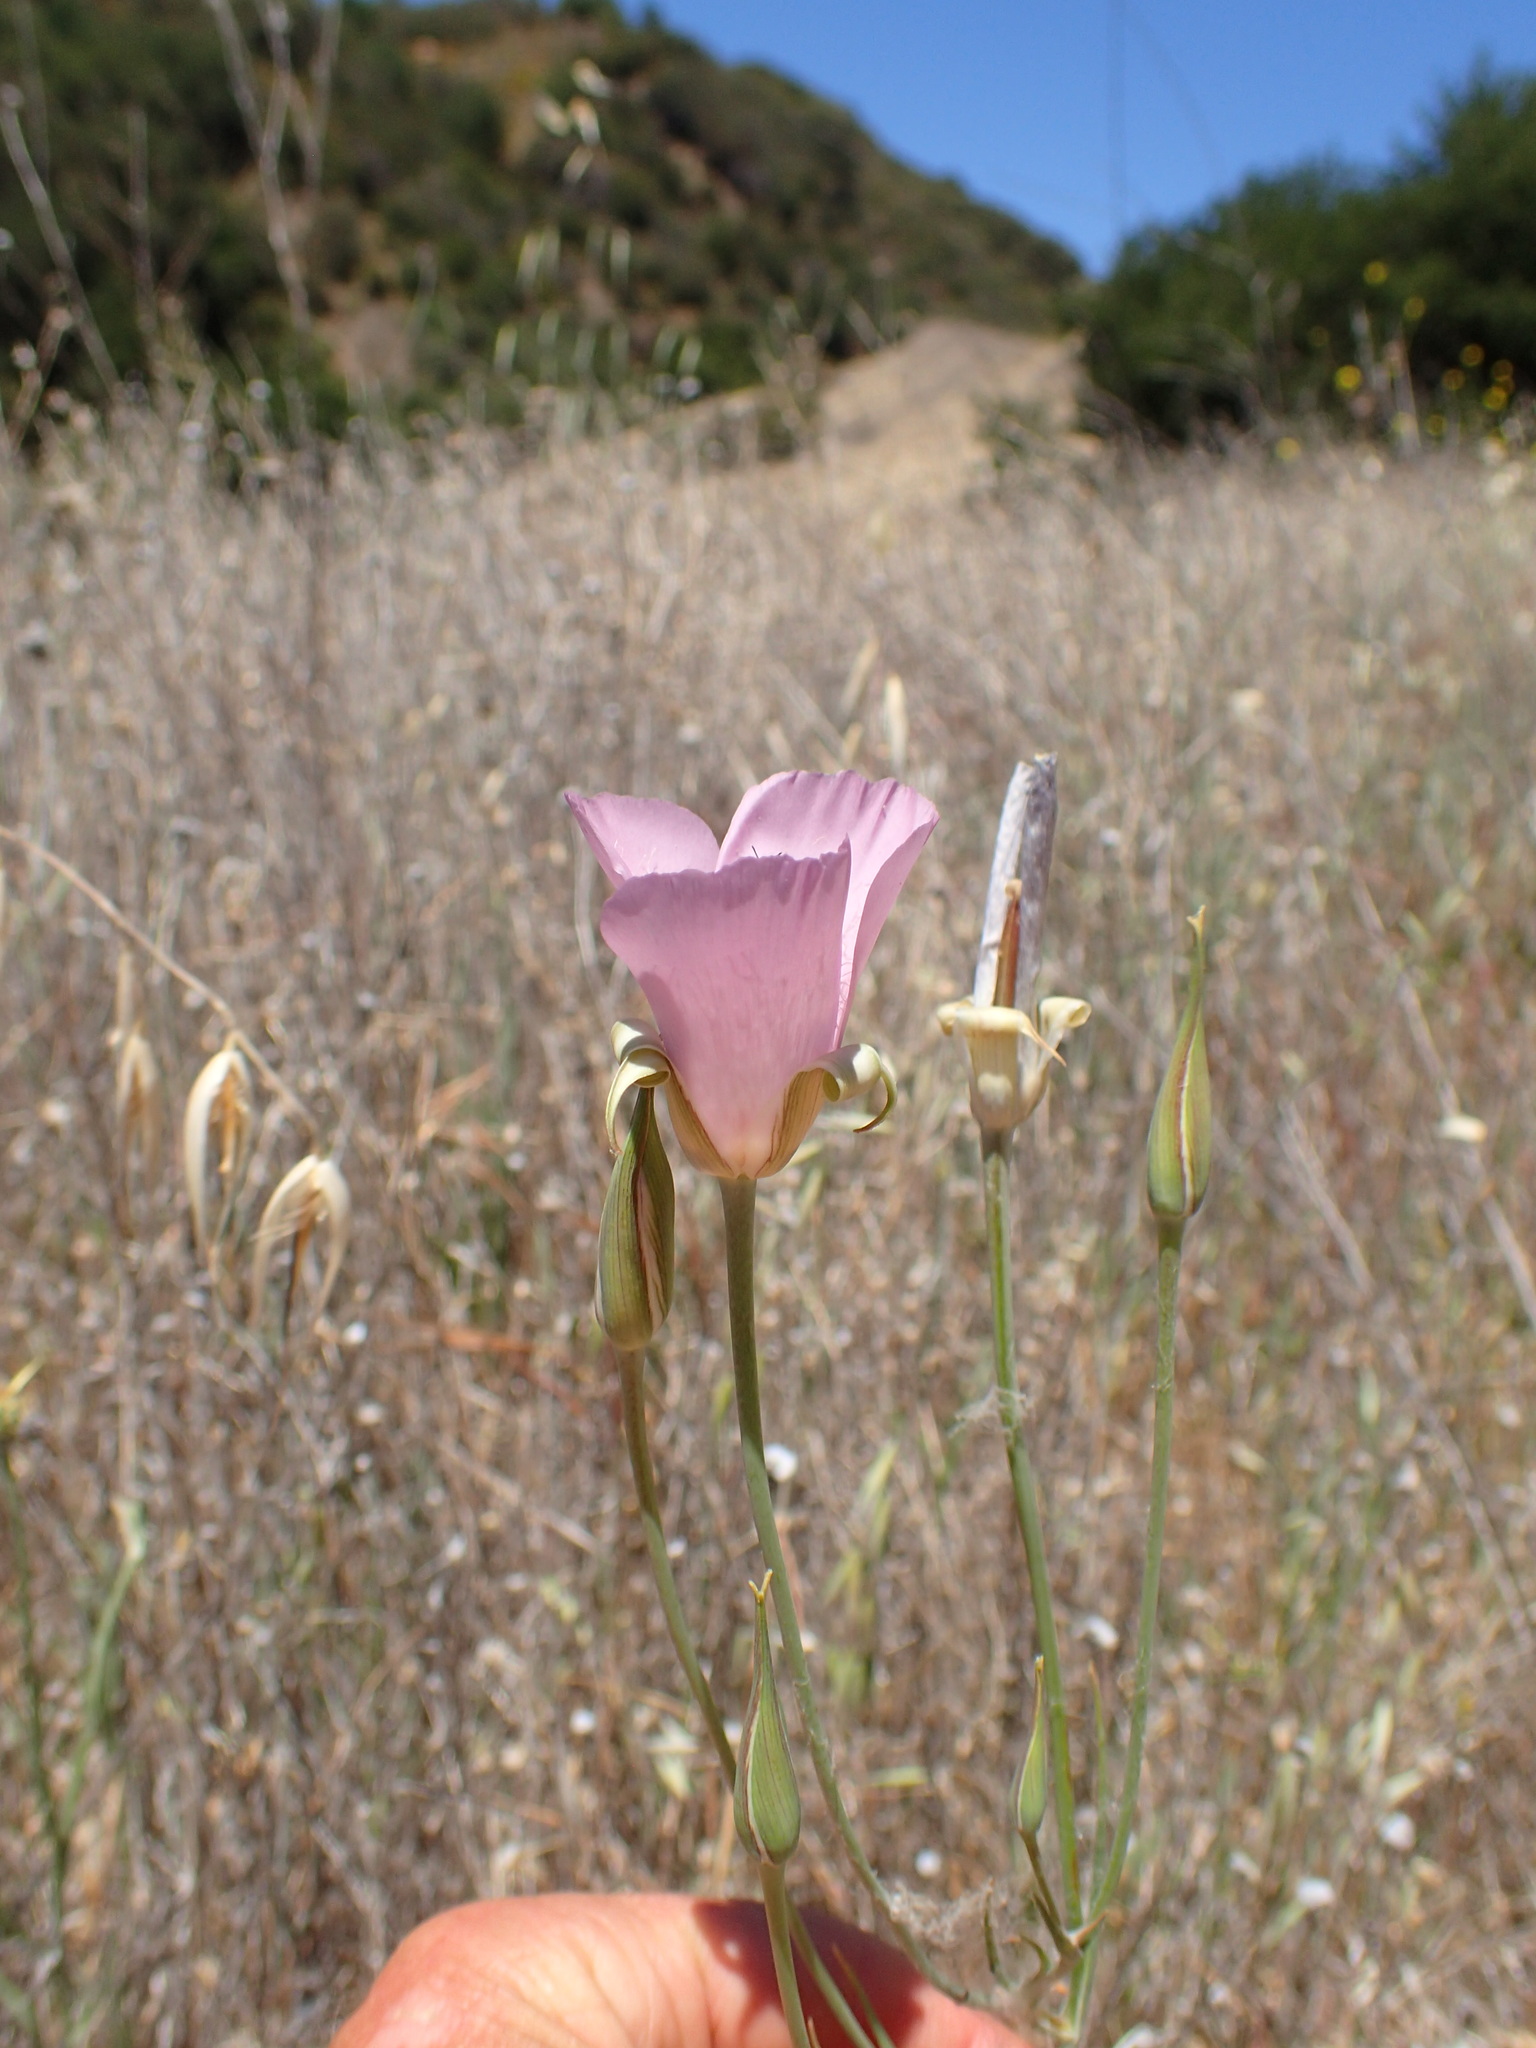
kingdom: Plantae
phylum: Tracheophyta
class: Liliopsida
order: Liliales
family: Liliaceae
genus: Calochortus
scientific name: Calochortus splendens
